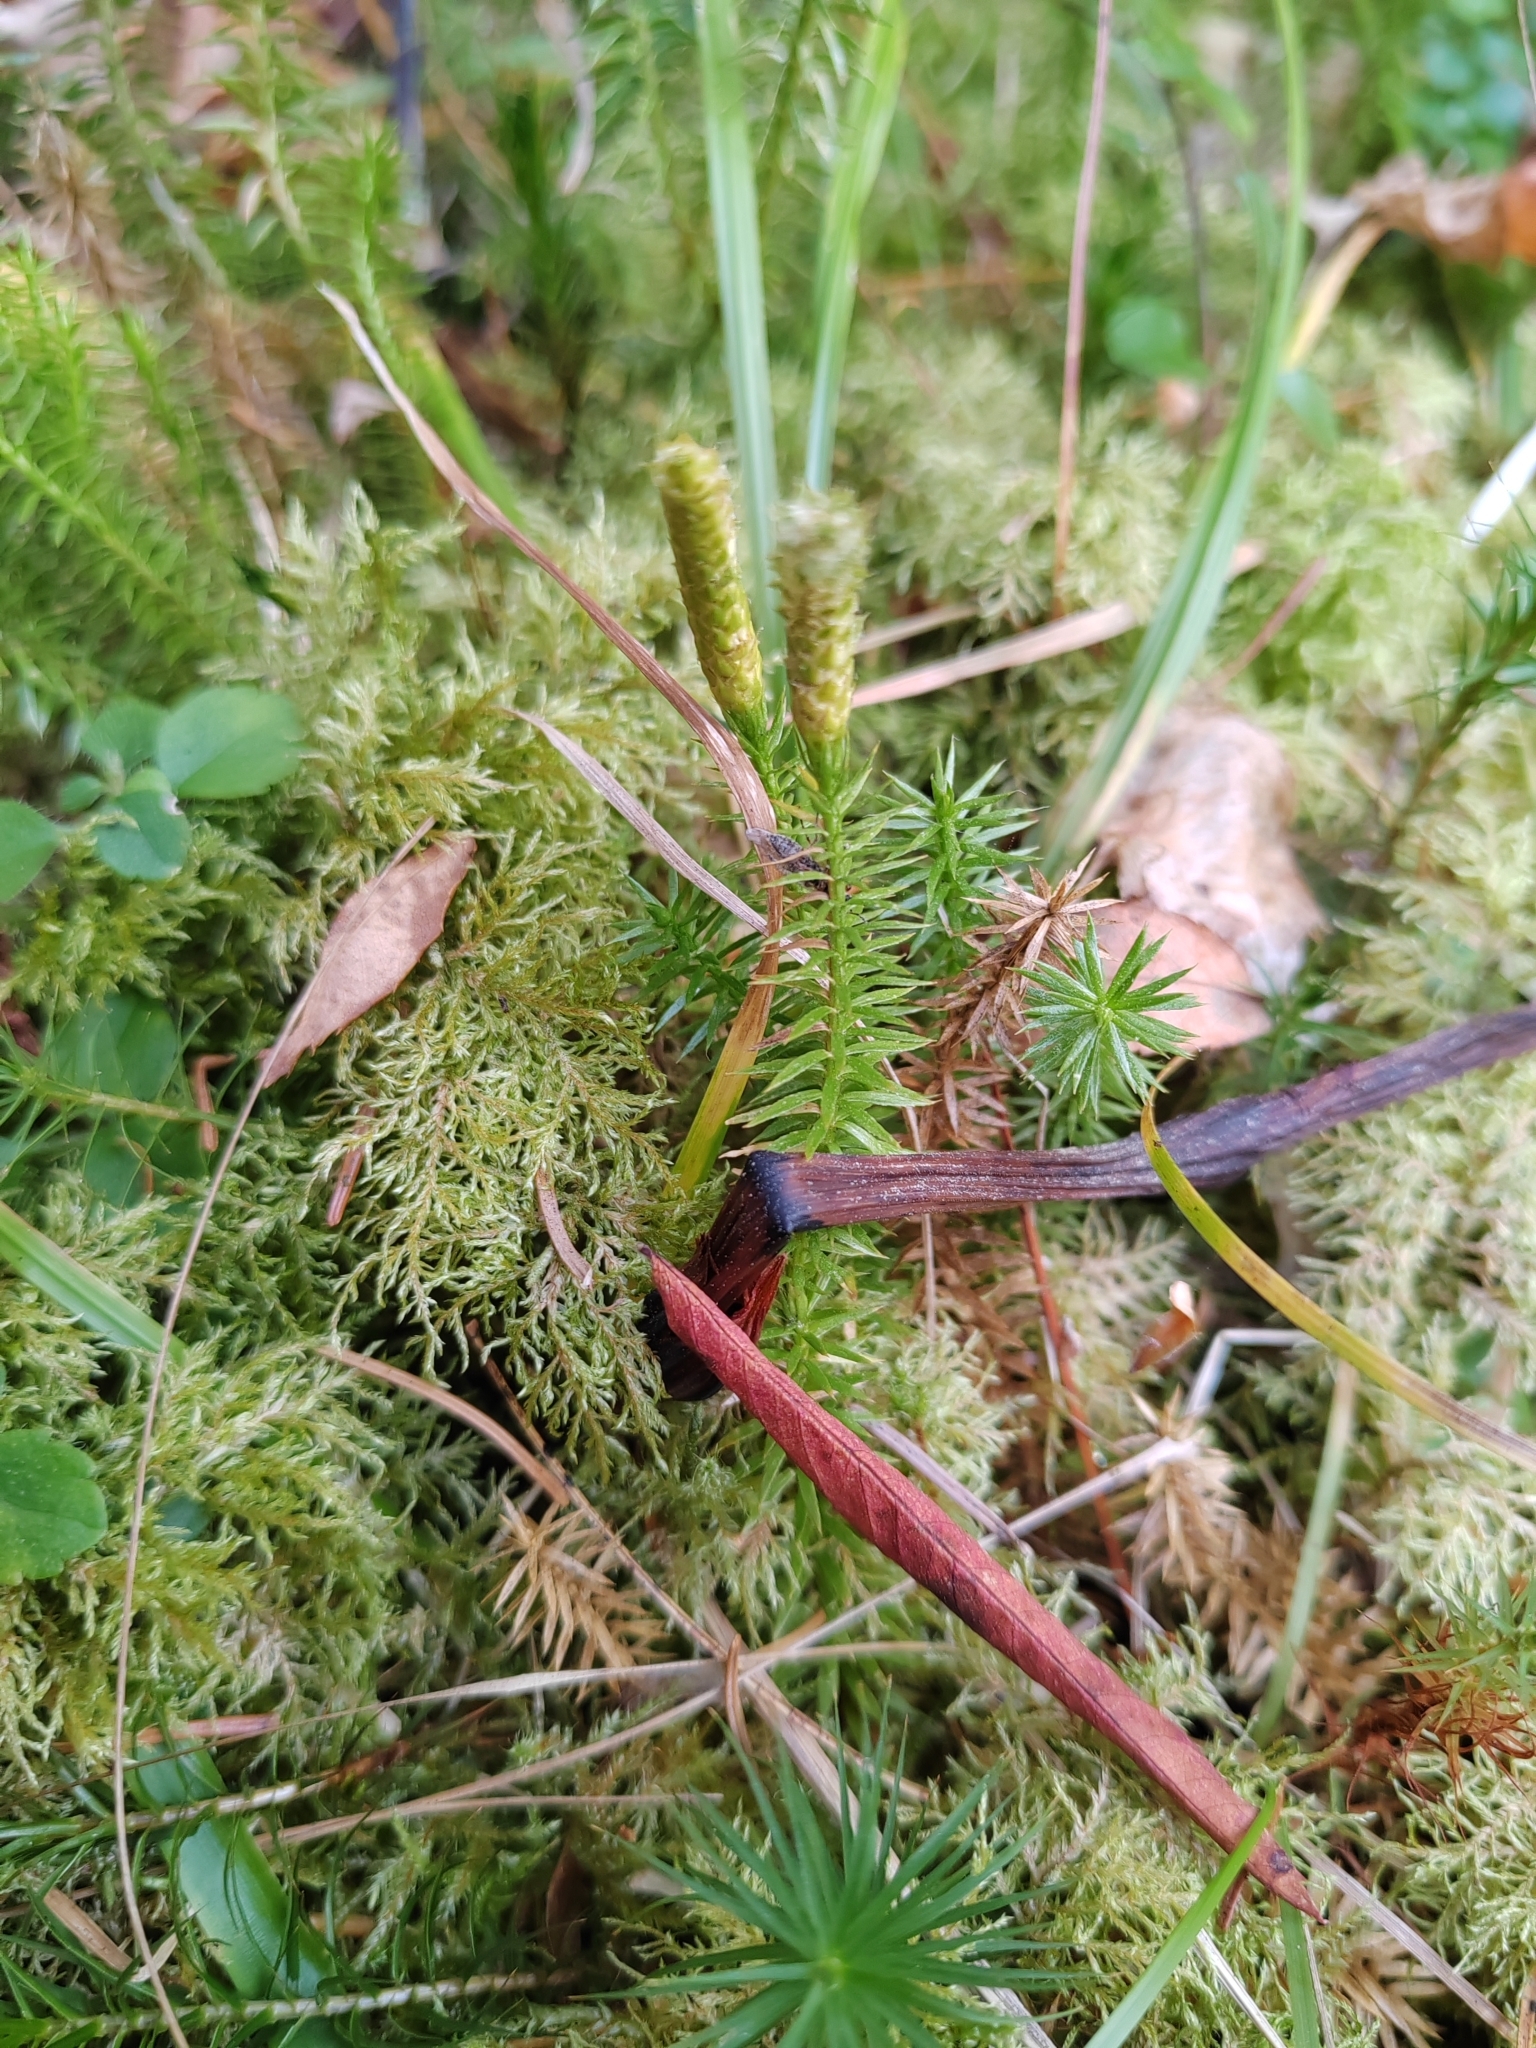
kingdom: Plantae
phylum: Tracheophyta
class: Lycopodiopsida
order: Lycopodiales
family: Lycopodiaceae
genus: Spinulum
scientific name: Spinulum annotinum
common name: Interrupted club-moss
